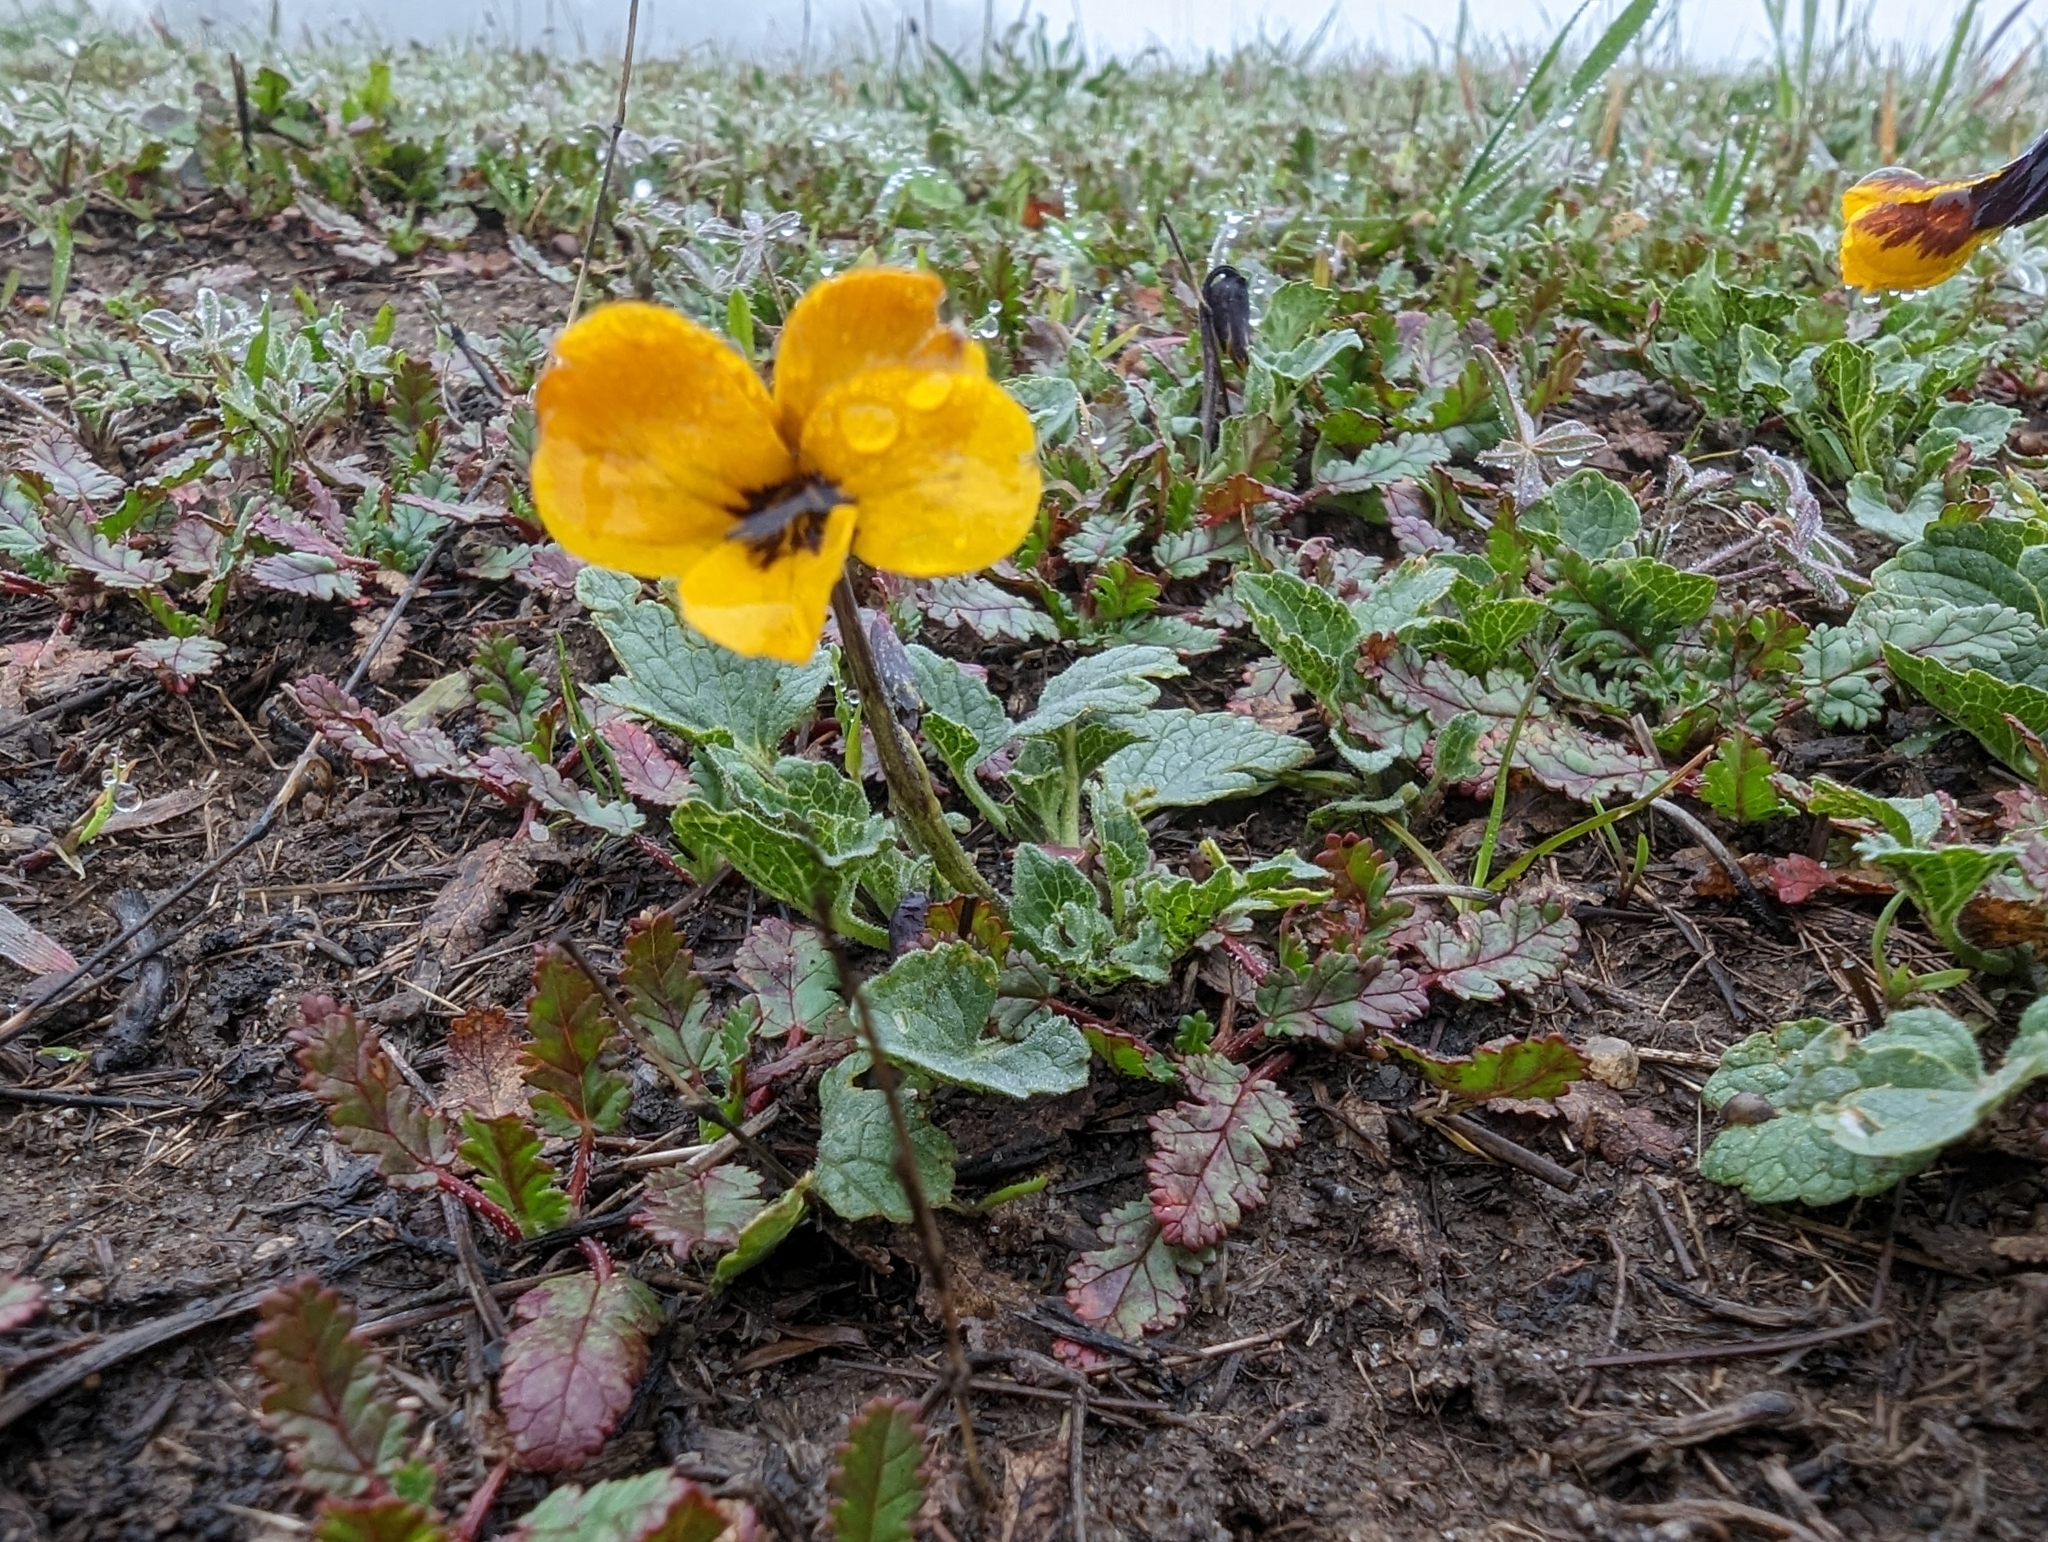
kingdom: Plantae
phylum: Tracheophyta
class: Magnoliopsida
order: Malpighiales
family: Violaceae
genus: Viola
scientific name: Viola pedunculata
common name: California golden violet
